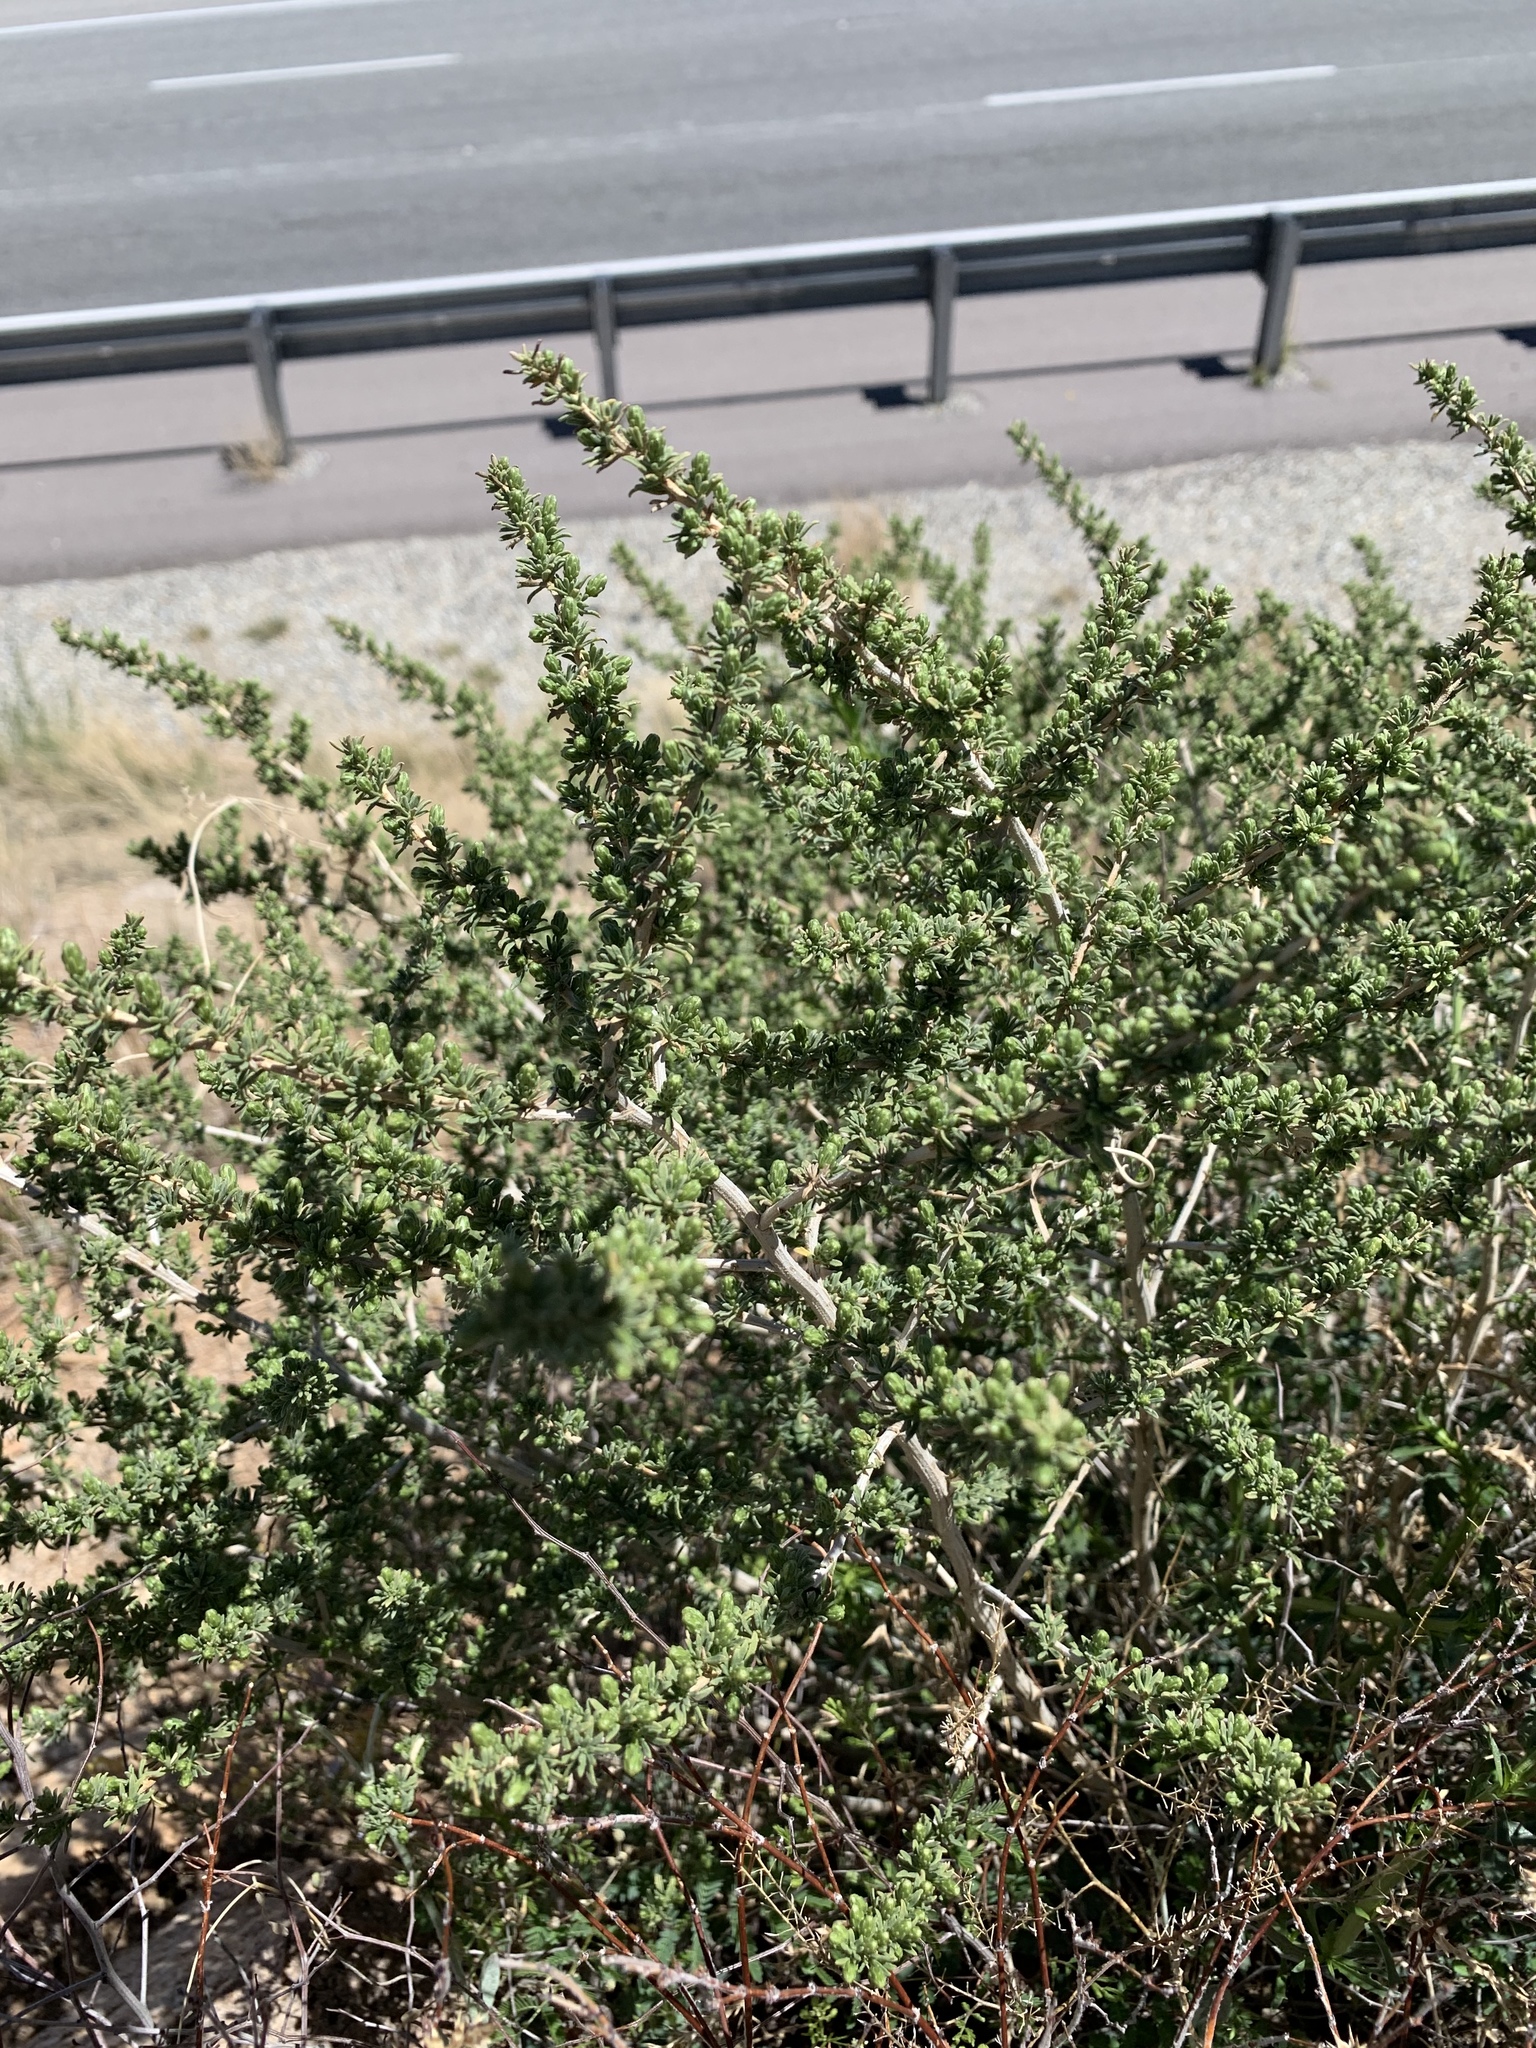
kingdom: Plantae
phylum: Tracheophyta
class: Magnoliopsida
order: Asterales
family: Asteraceae
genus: Baccharis
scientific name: Baccharis pteronioides
